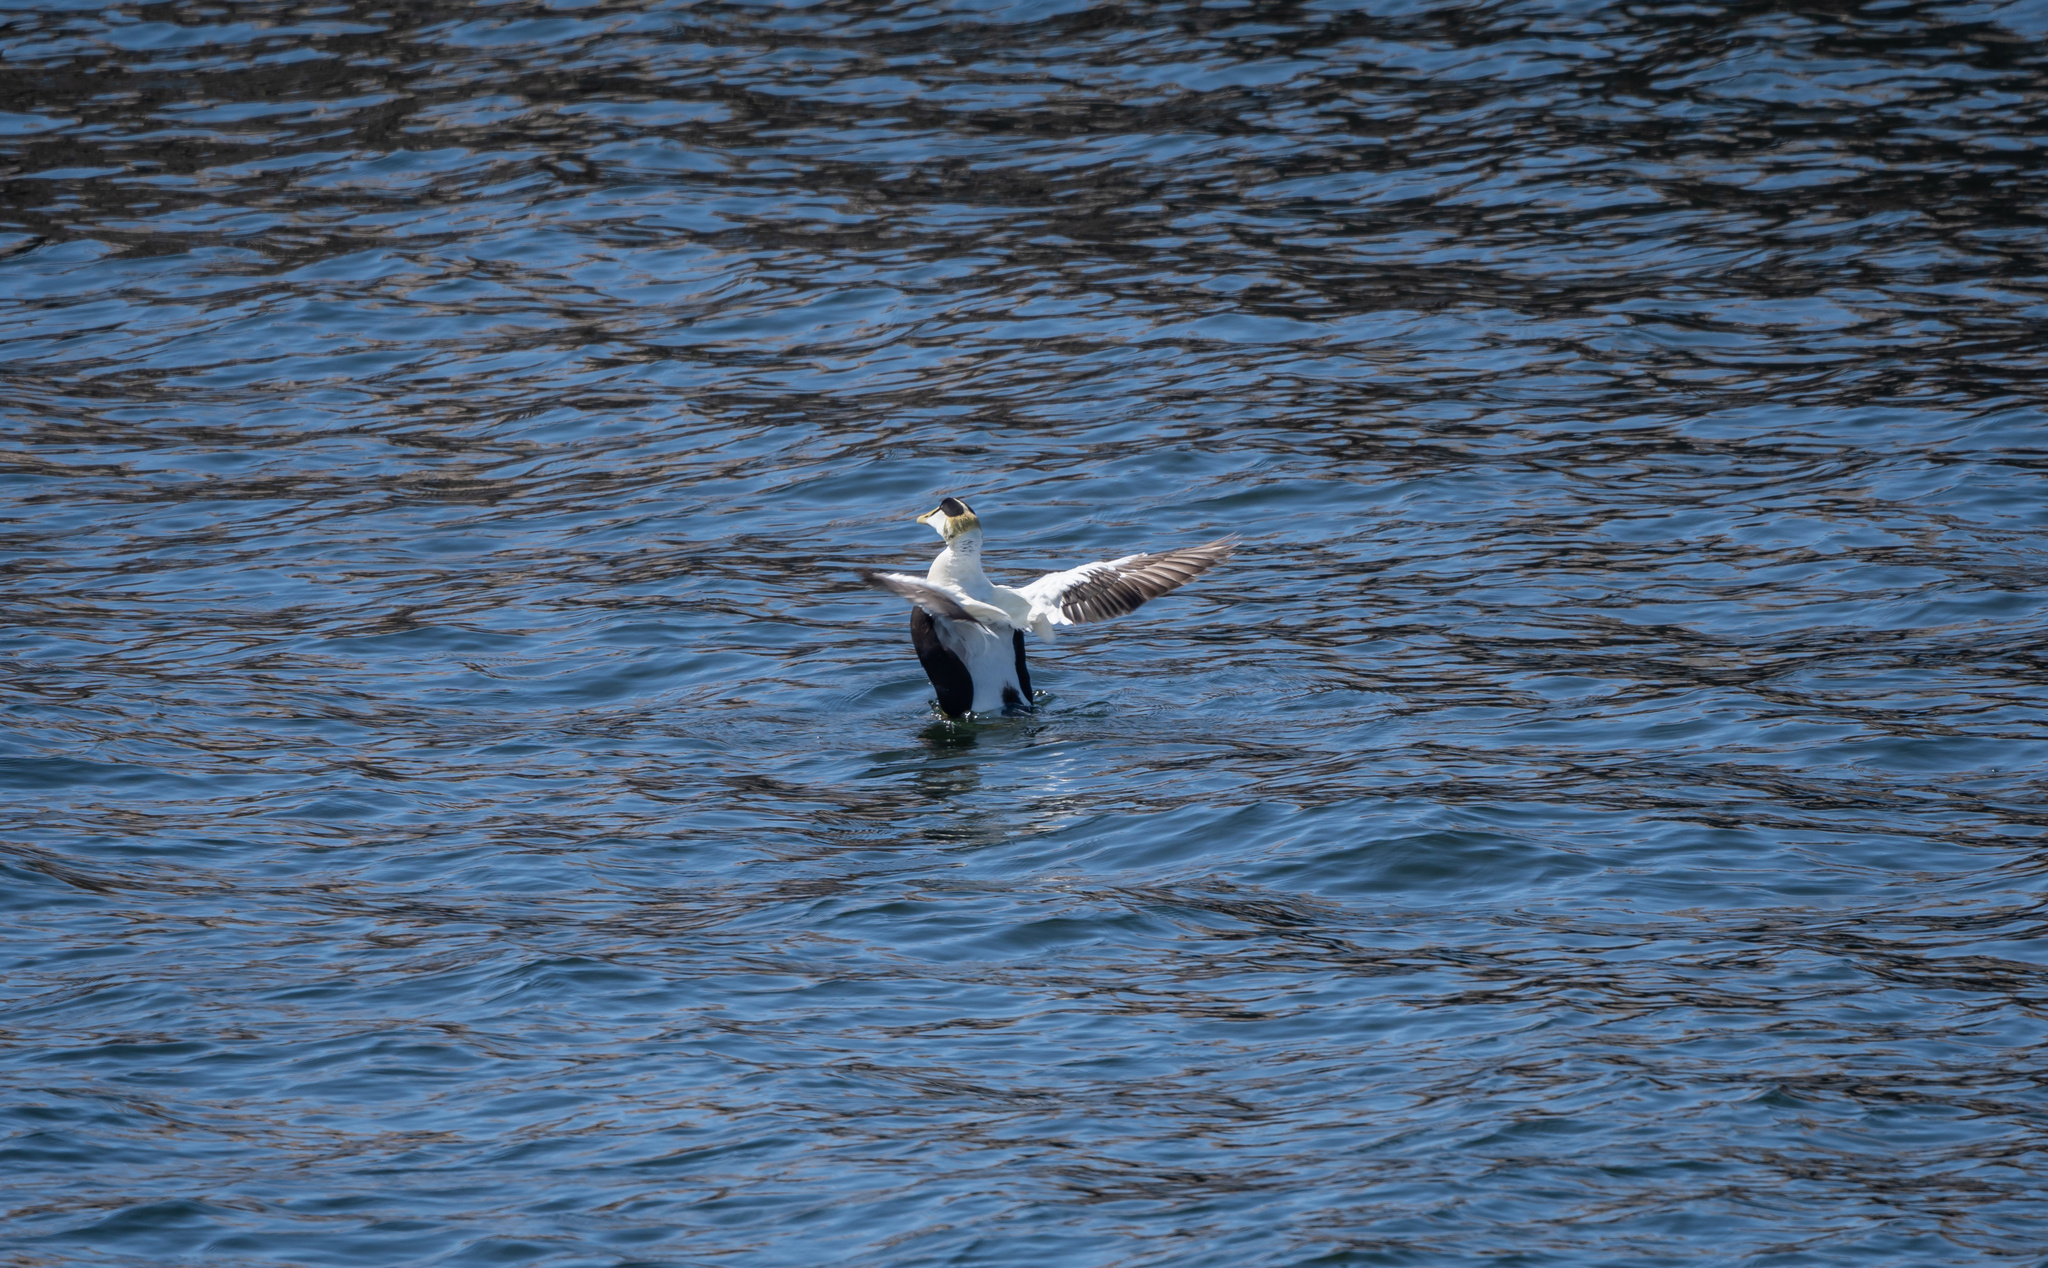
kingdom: Animalia
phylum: Chordata
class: Aves
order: Anseriformes
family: Anatidae
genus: Somateria
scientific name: Somateria mollissima
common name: Common eider
